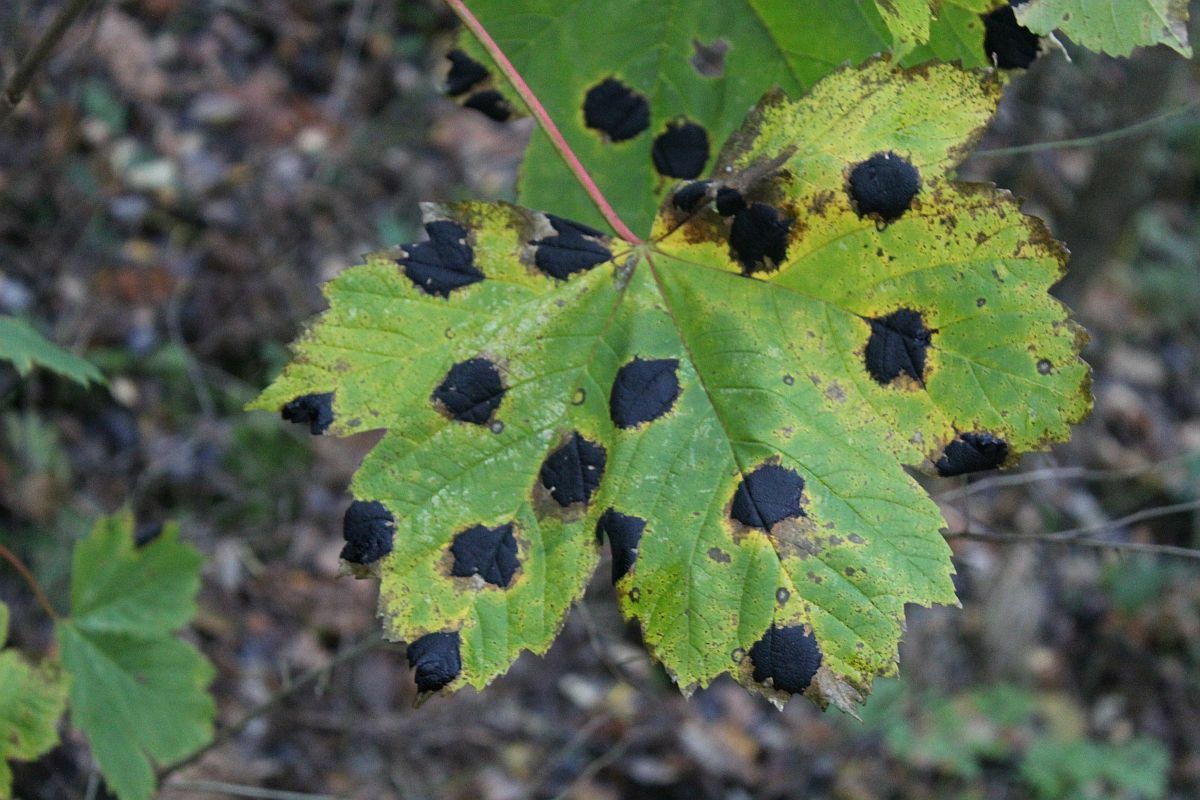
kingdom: Fungi
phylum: Ascomycota
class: Leotiomycetes
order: Rhytismatales
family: Rhytismataceae
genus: Rhytisma
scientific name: Rhytisma acerinum
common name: European tar spot
